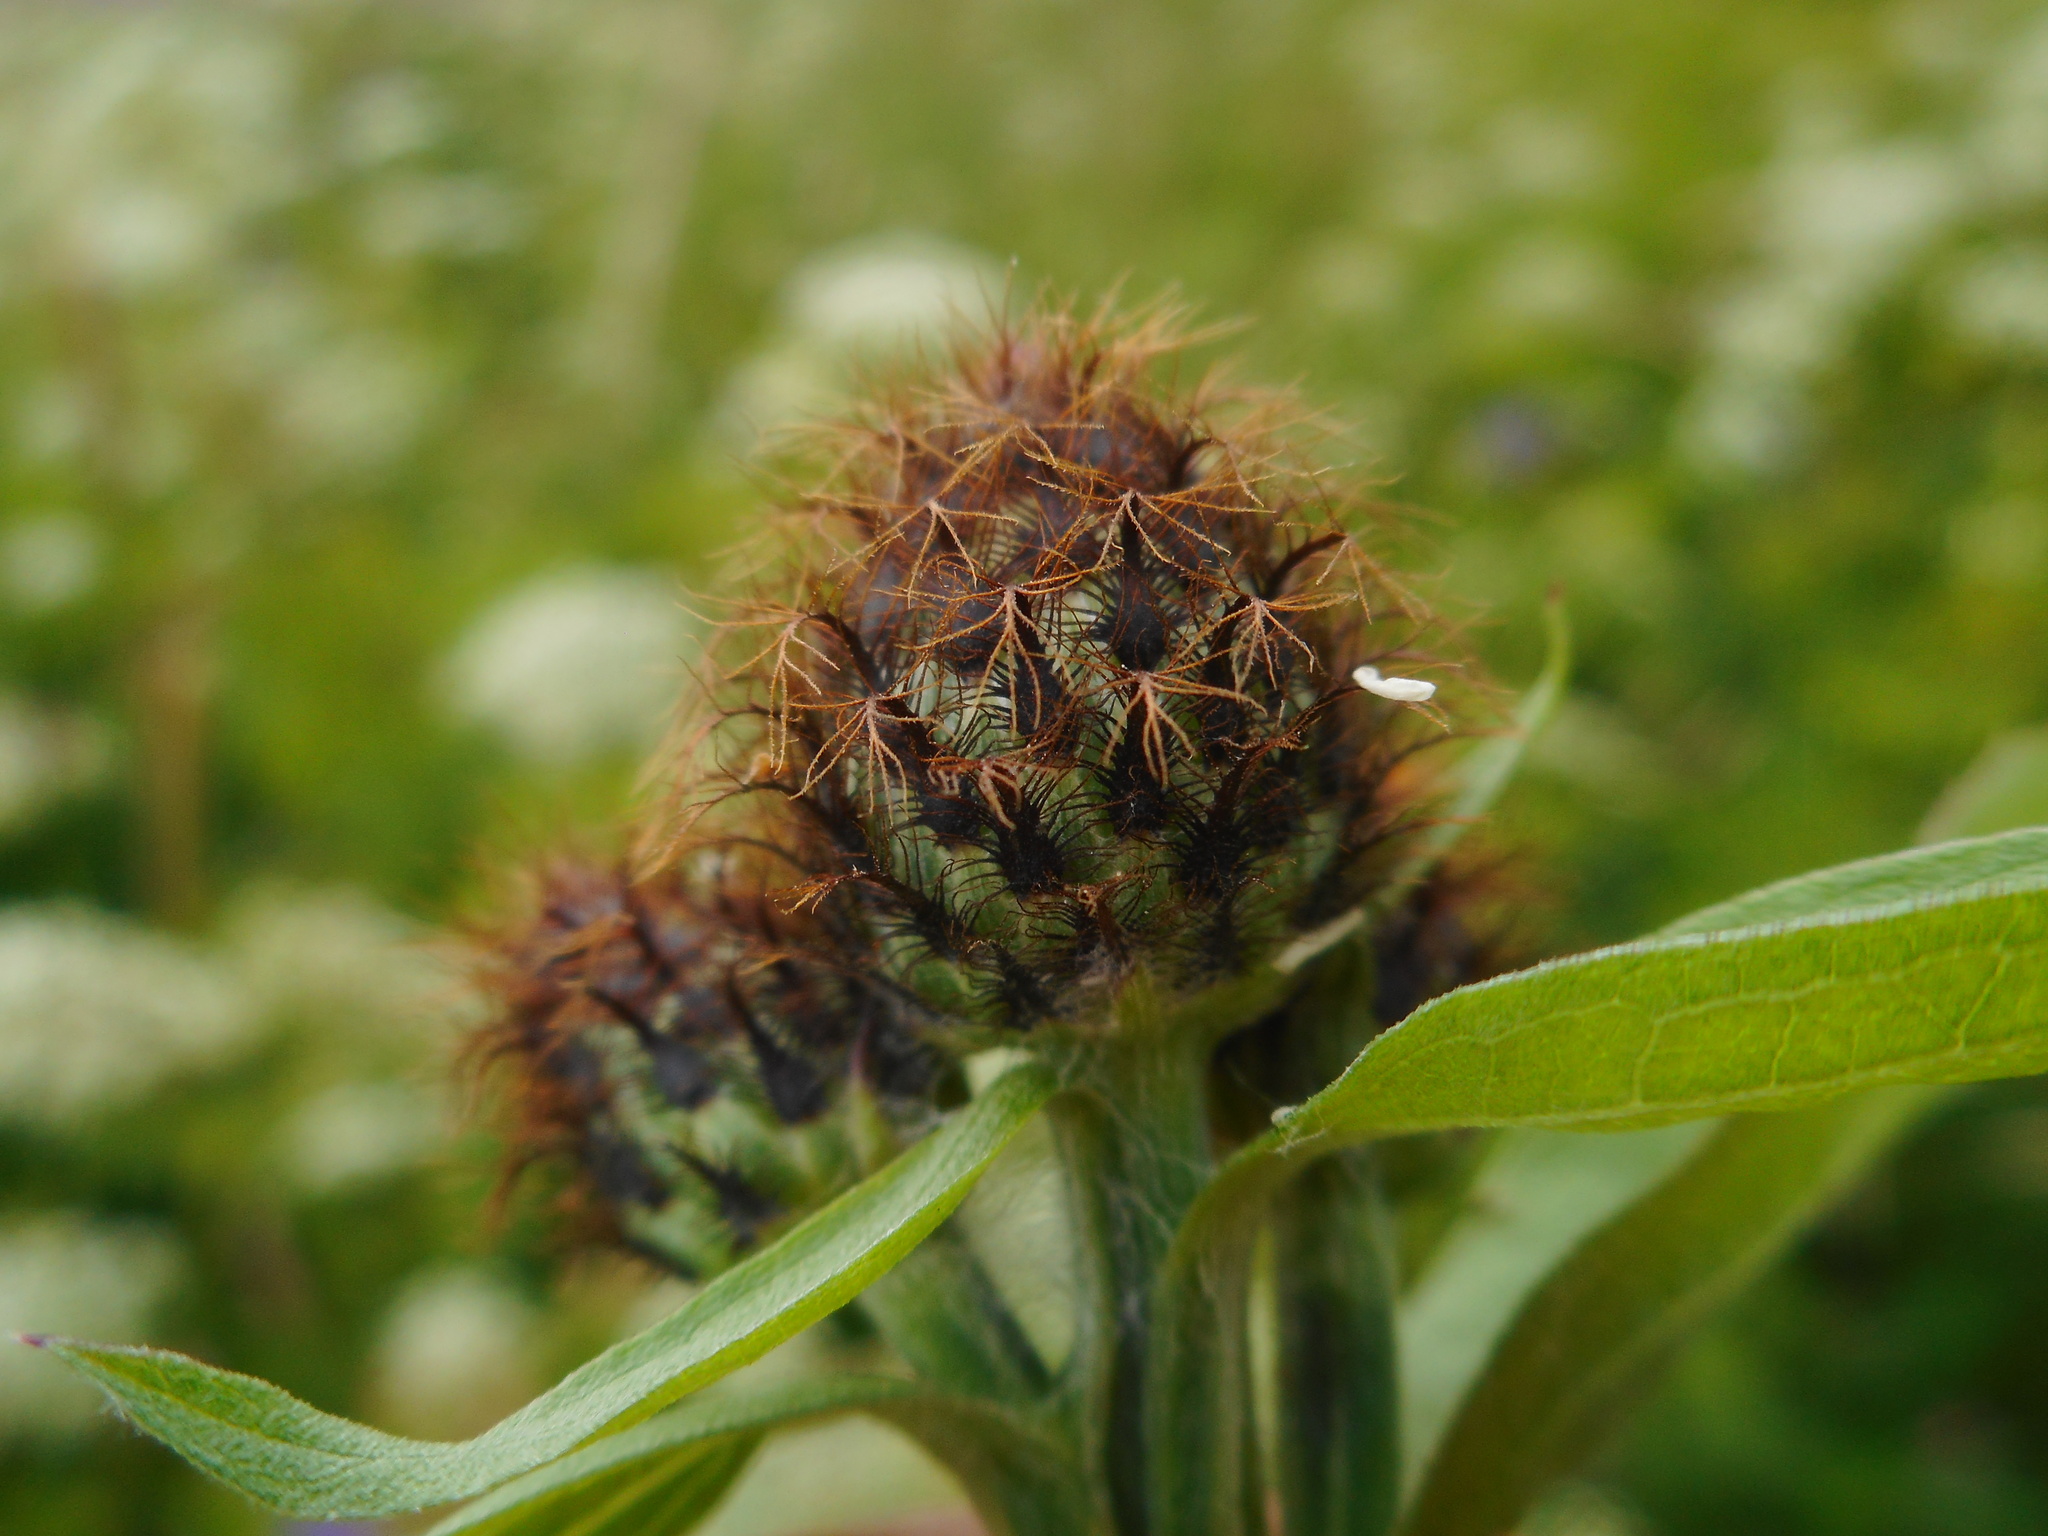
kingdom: Plantae
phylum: Tracheophyta
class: Magnoliopsida
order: Asterales
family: Asteraceae
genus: Centaurea
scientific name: Centaurea phrygia
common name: Wig knapweed
